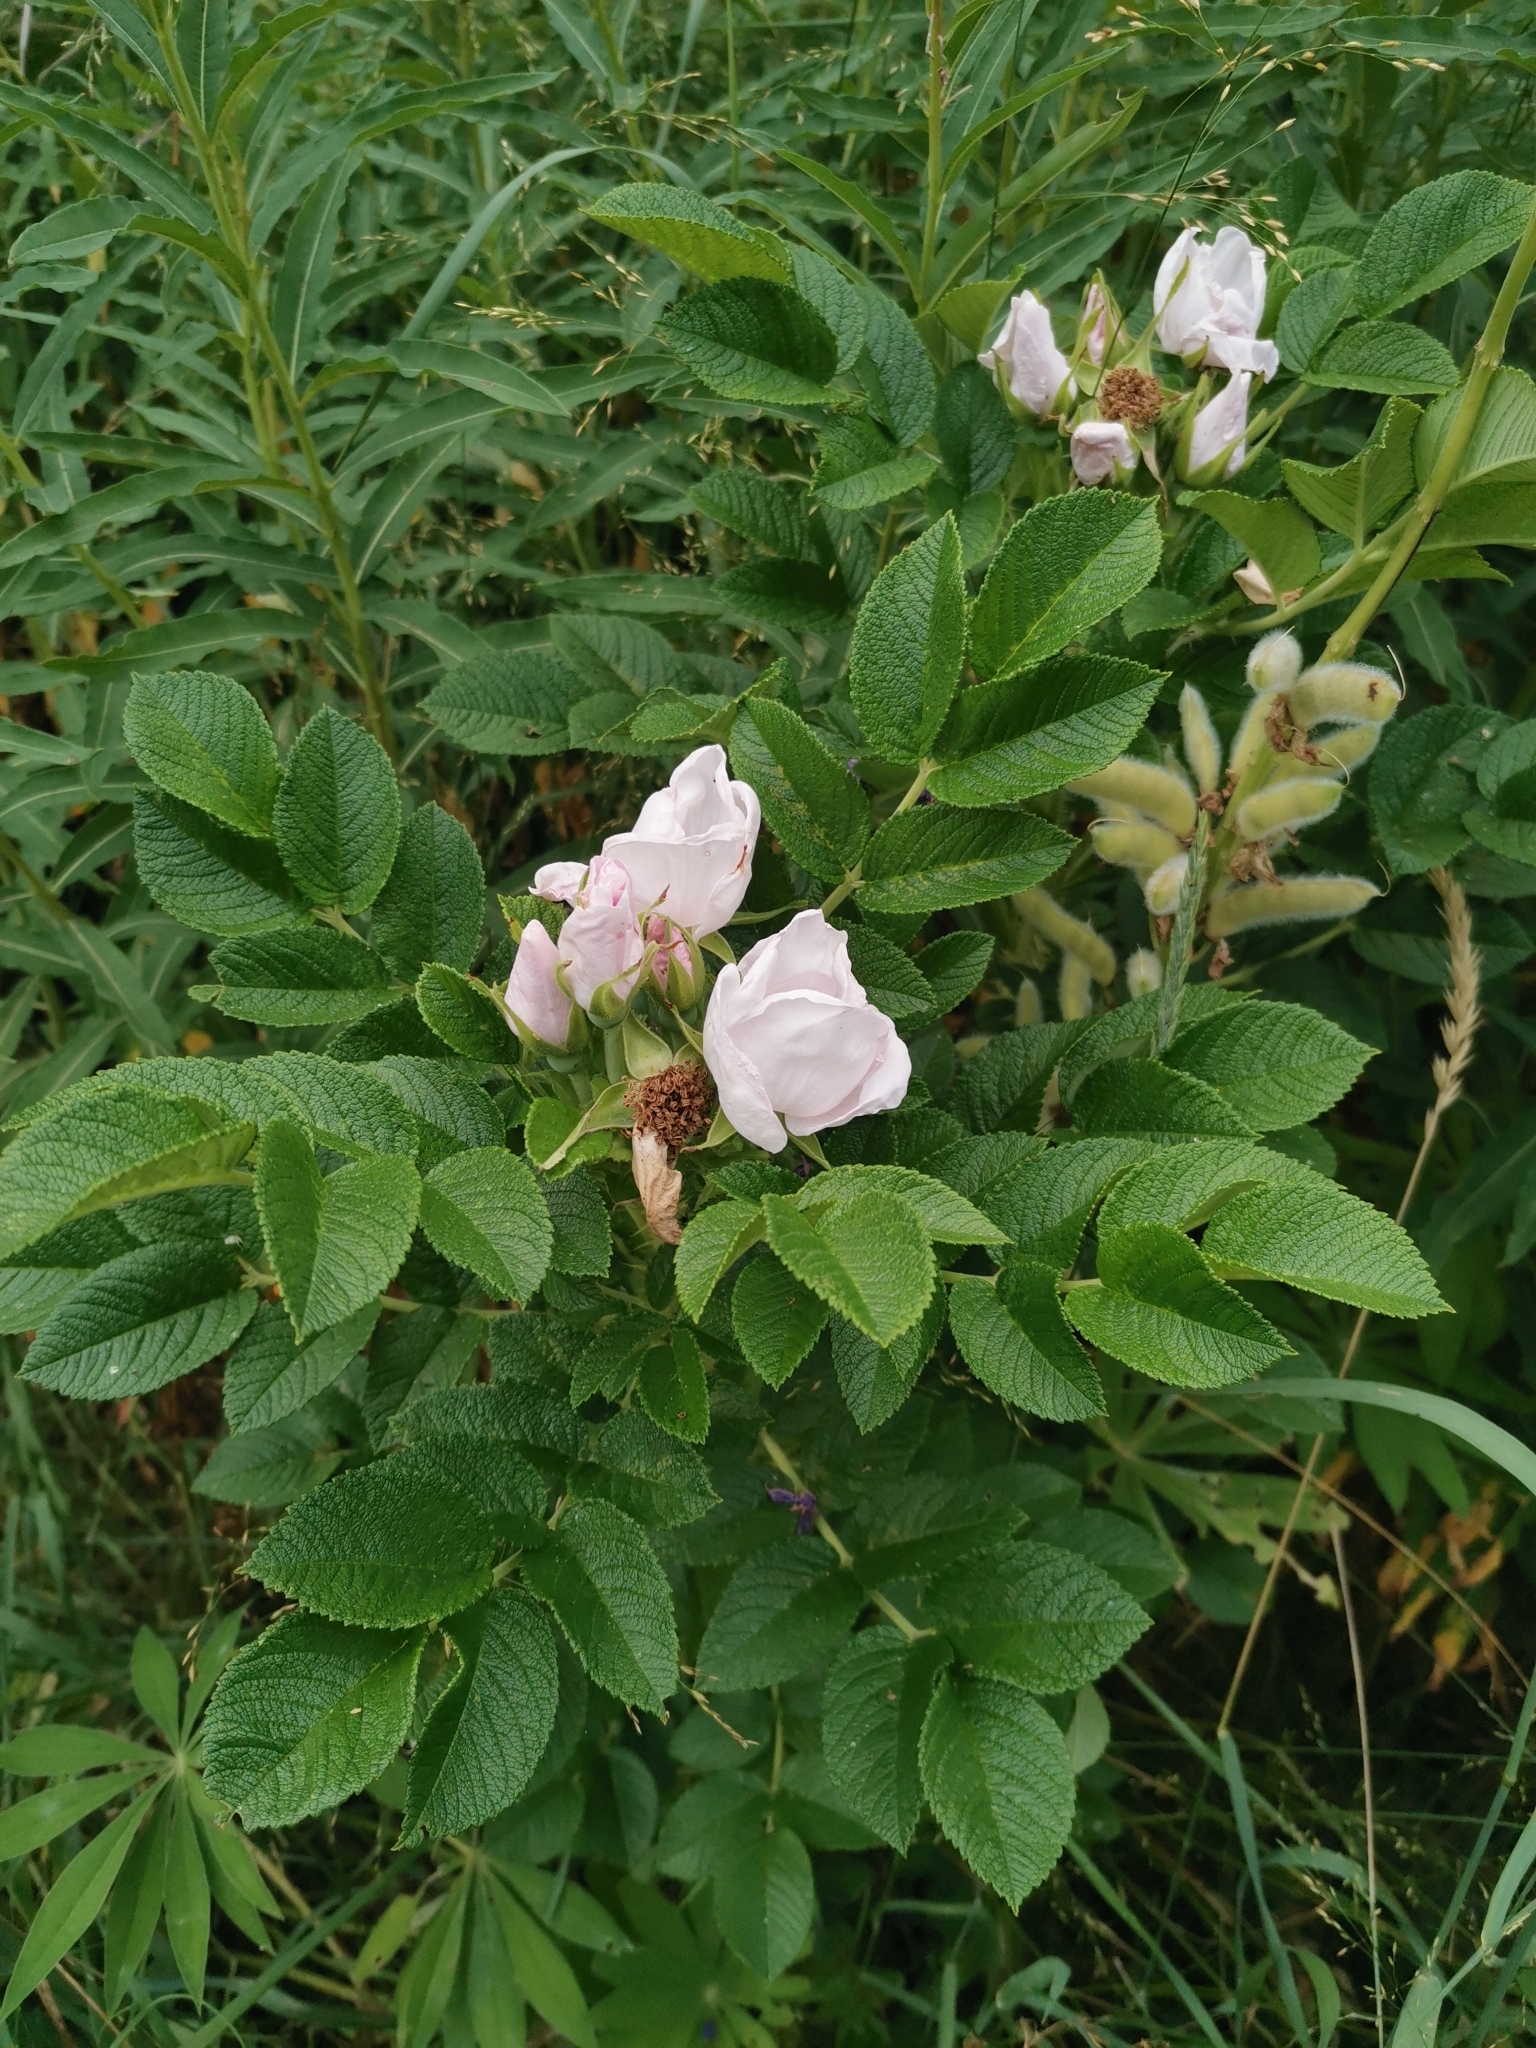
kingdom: Plantae
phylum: Tracheophyta
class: Magnoliopsida
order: Rosales
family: Rosaceae
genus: Rosa
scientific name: Rosa rugosa
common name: Japanese rose
